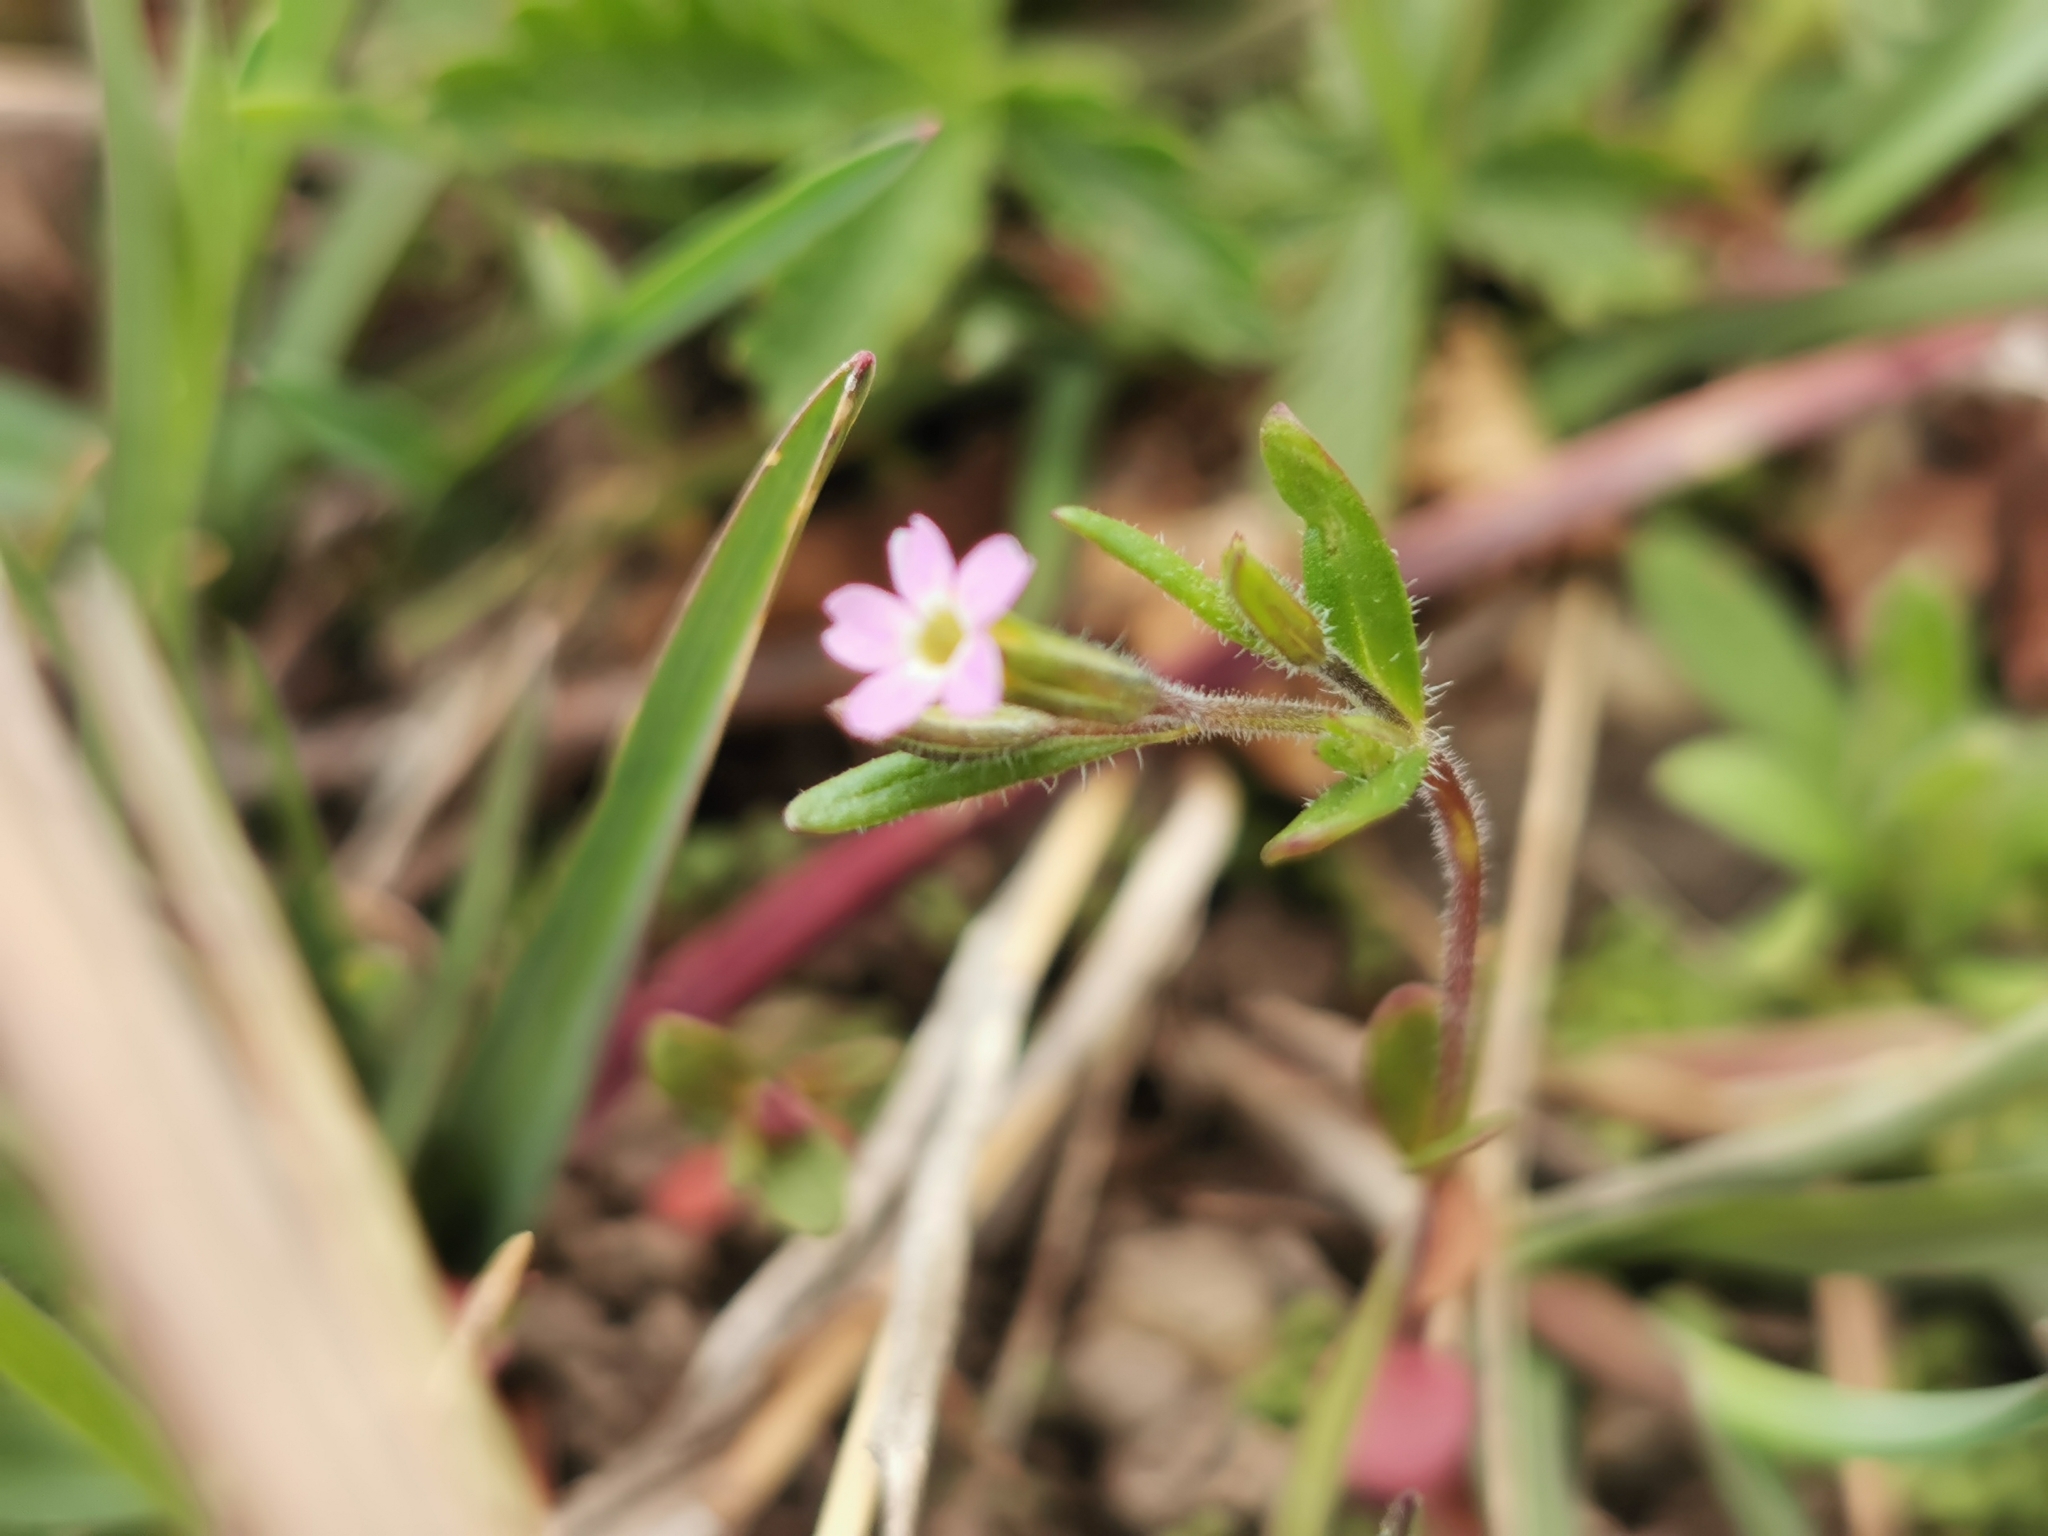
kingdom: Plantae
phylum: Tracheophyta
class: Magnoliopsida
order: Ericales
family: Polemoniaceae
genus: Phlox
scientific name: Phlox gracilis
